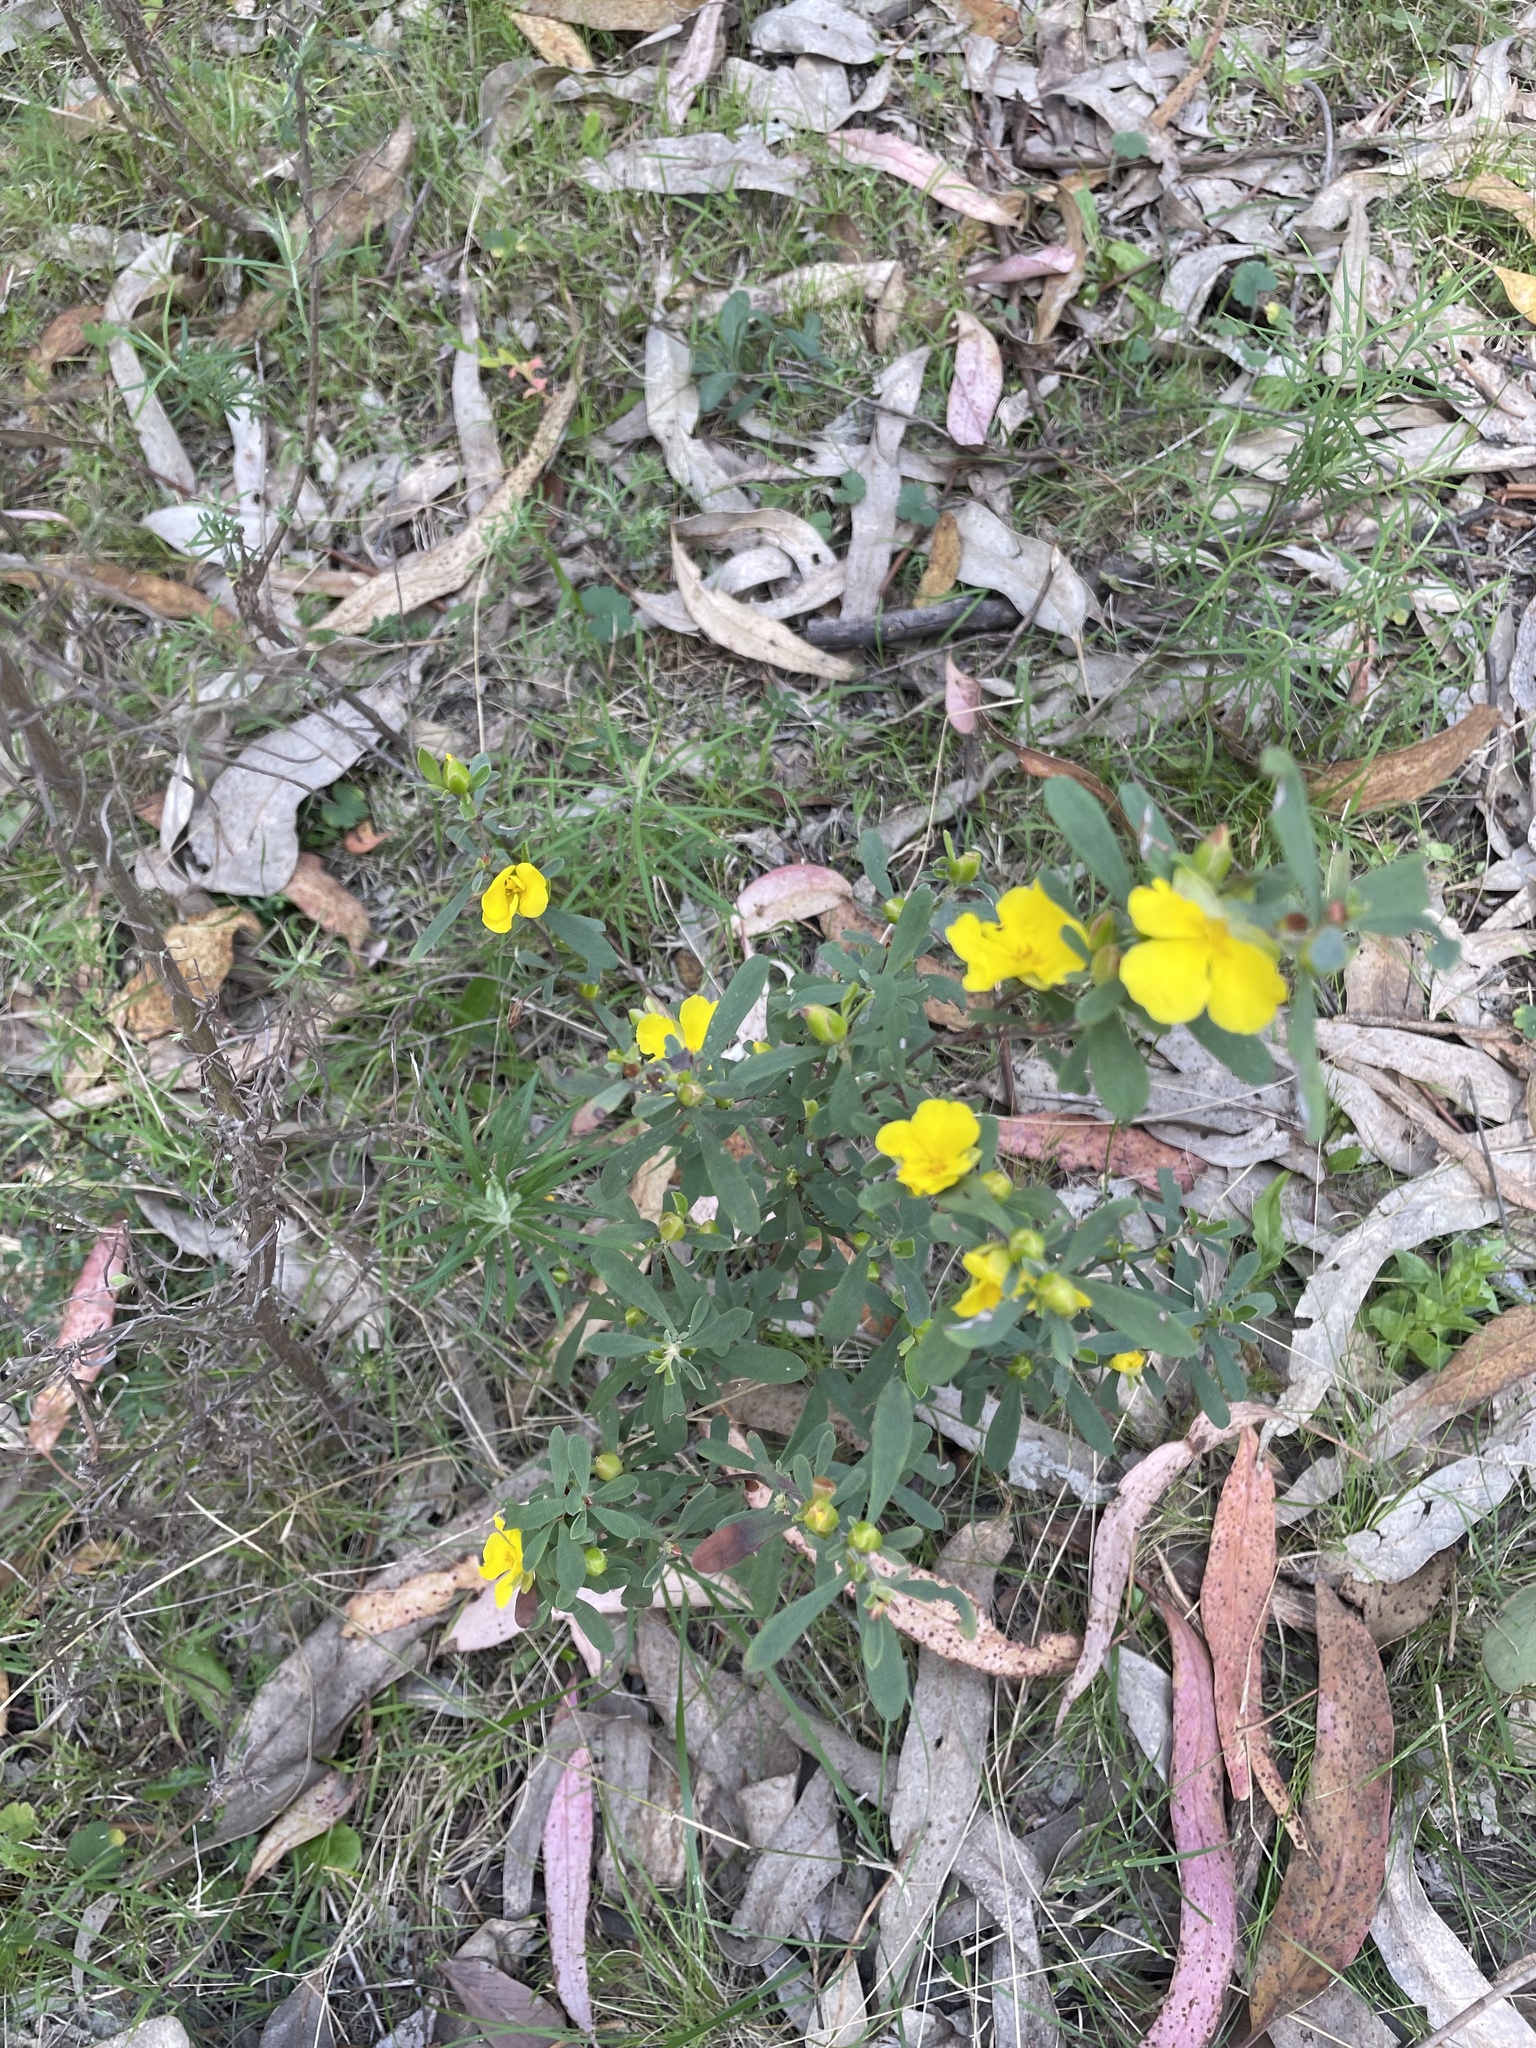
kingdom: Plantae
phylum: Tracheophyta
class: Magnoliopsida
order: Dilleniales
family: Dilleniaceae
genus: Hibbertia
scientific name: Hibbertia obtusifolia
